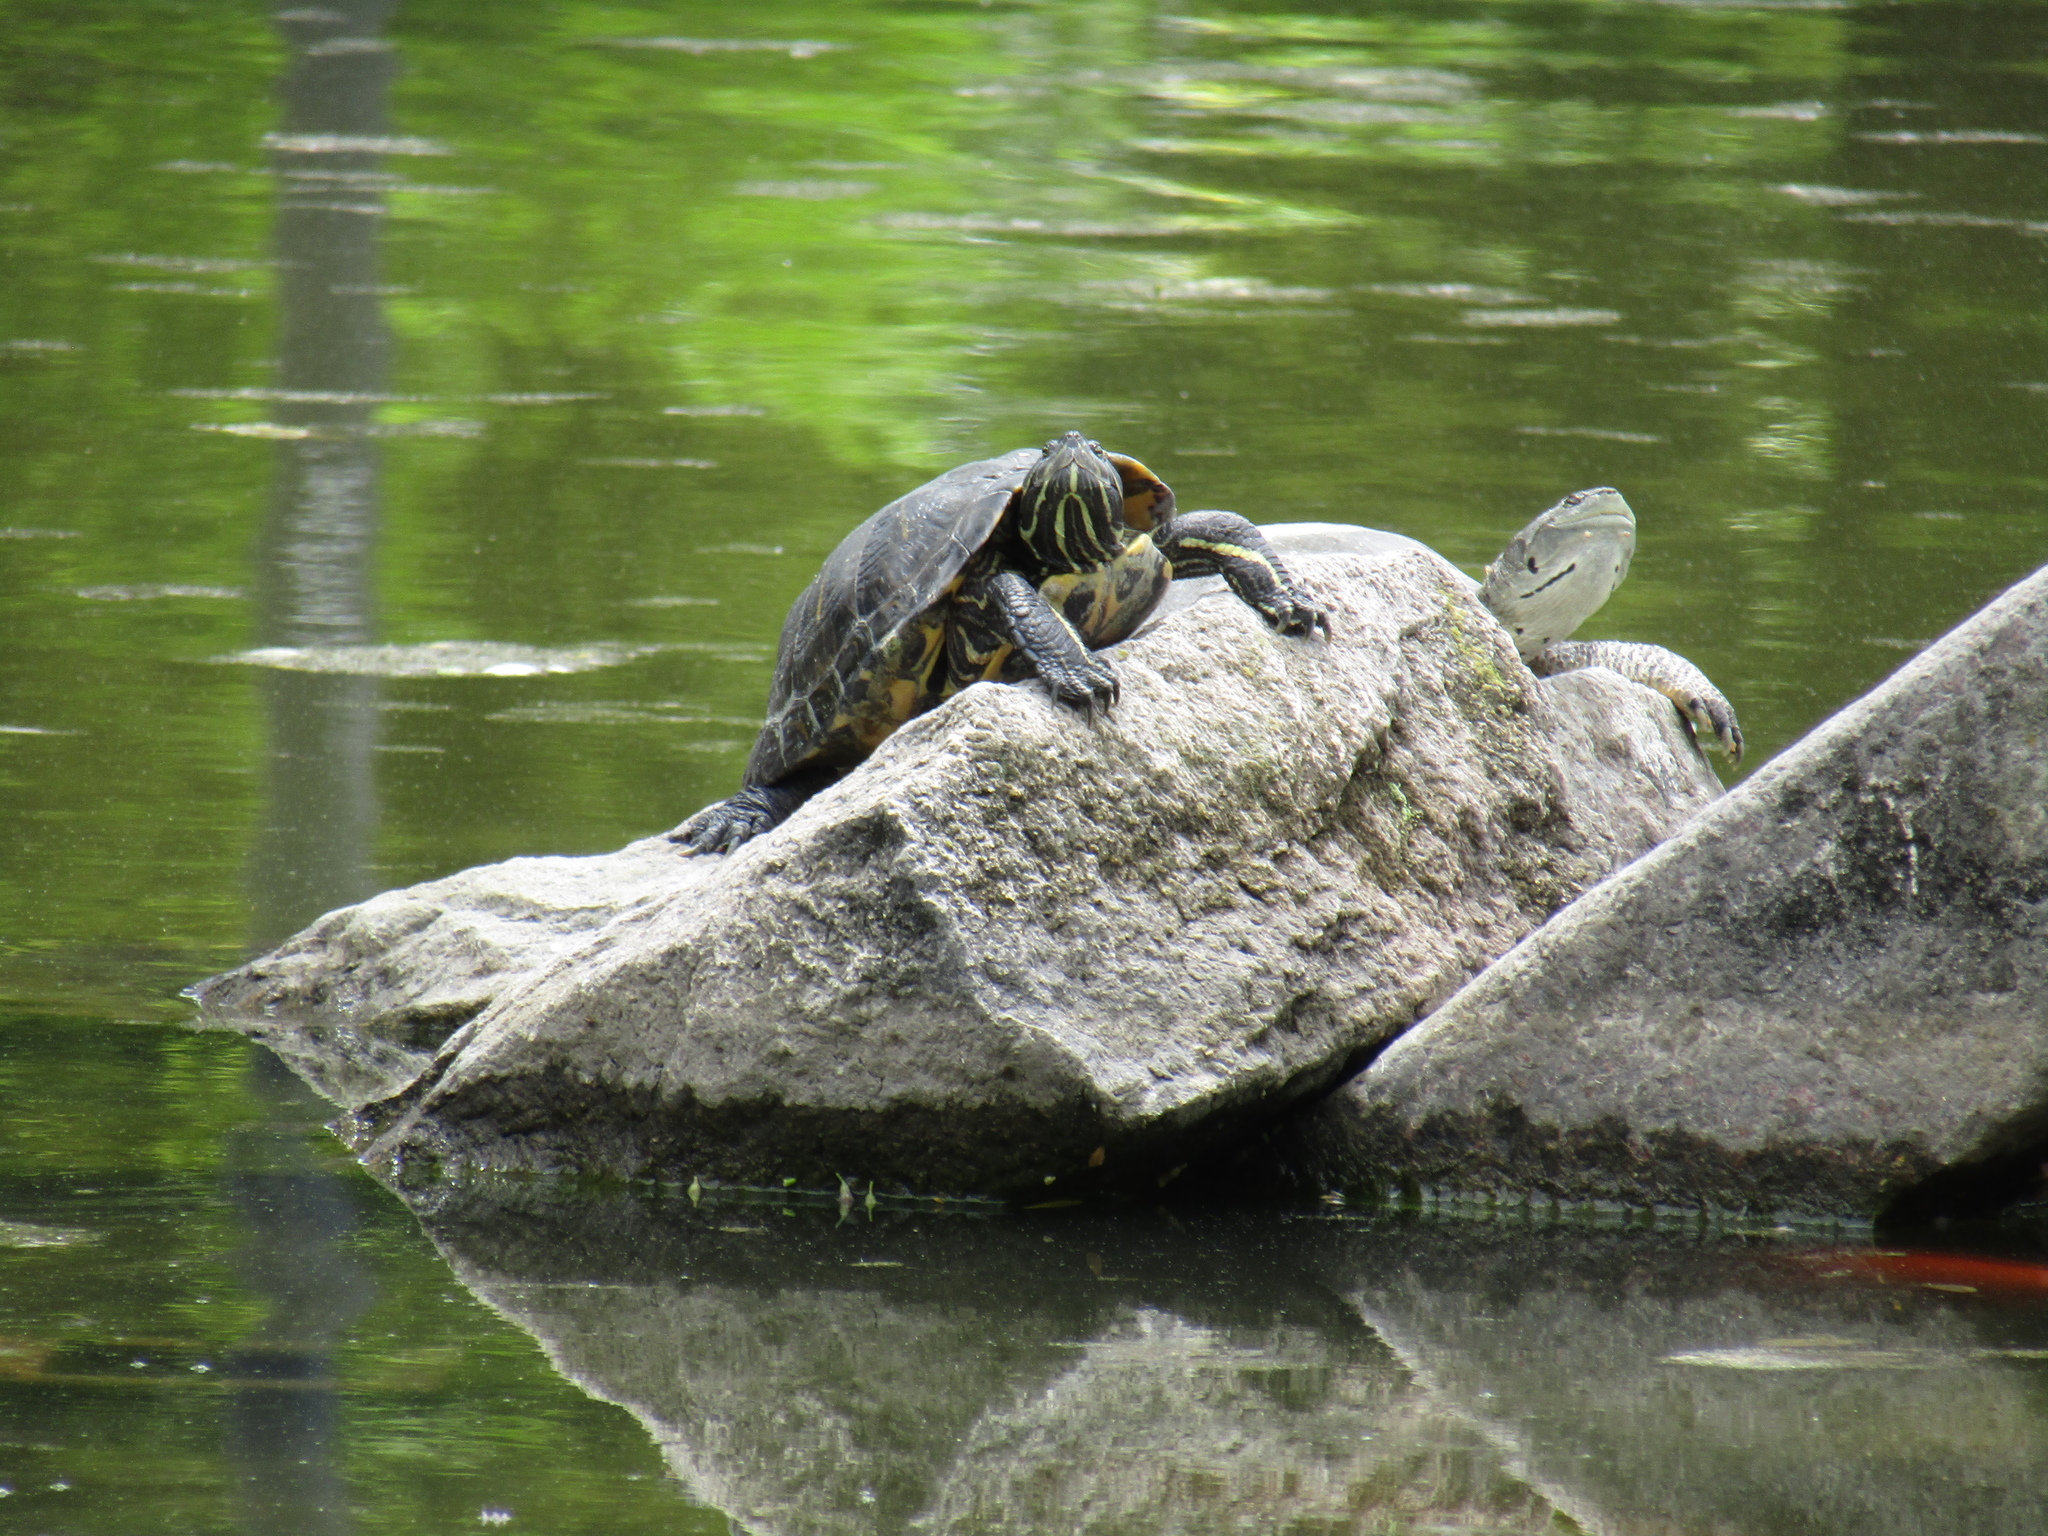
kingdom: Animalia
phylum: Chordata
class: Testudines
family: Emydidae
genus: Trachemys
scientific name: Trachemys scripta
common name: Slider
